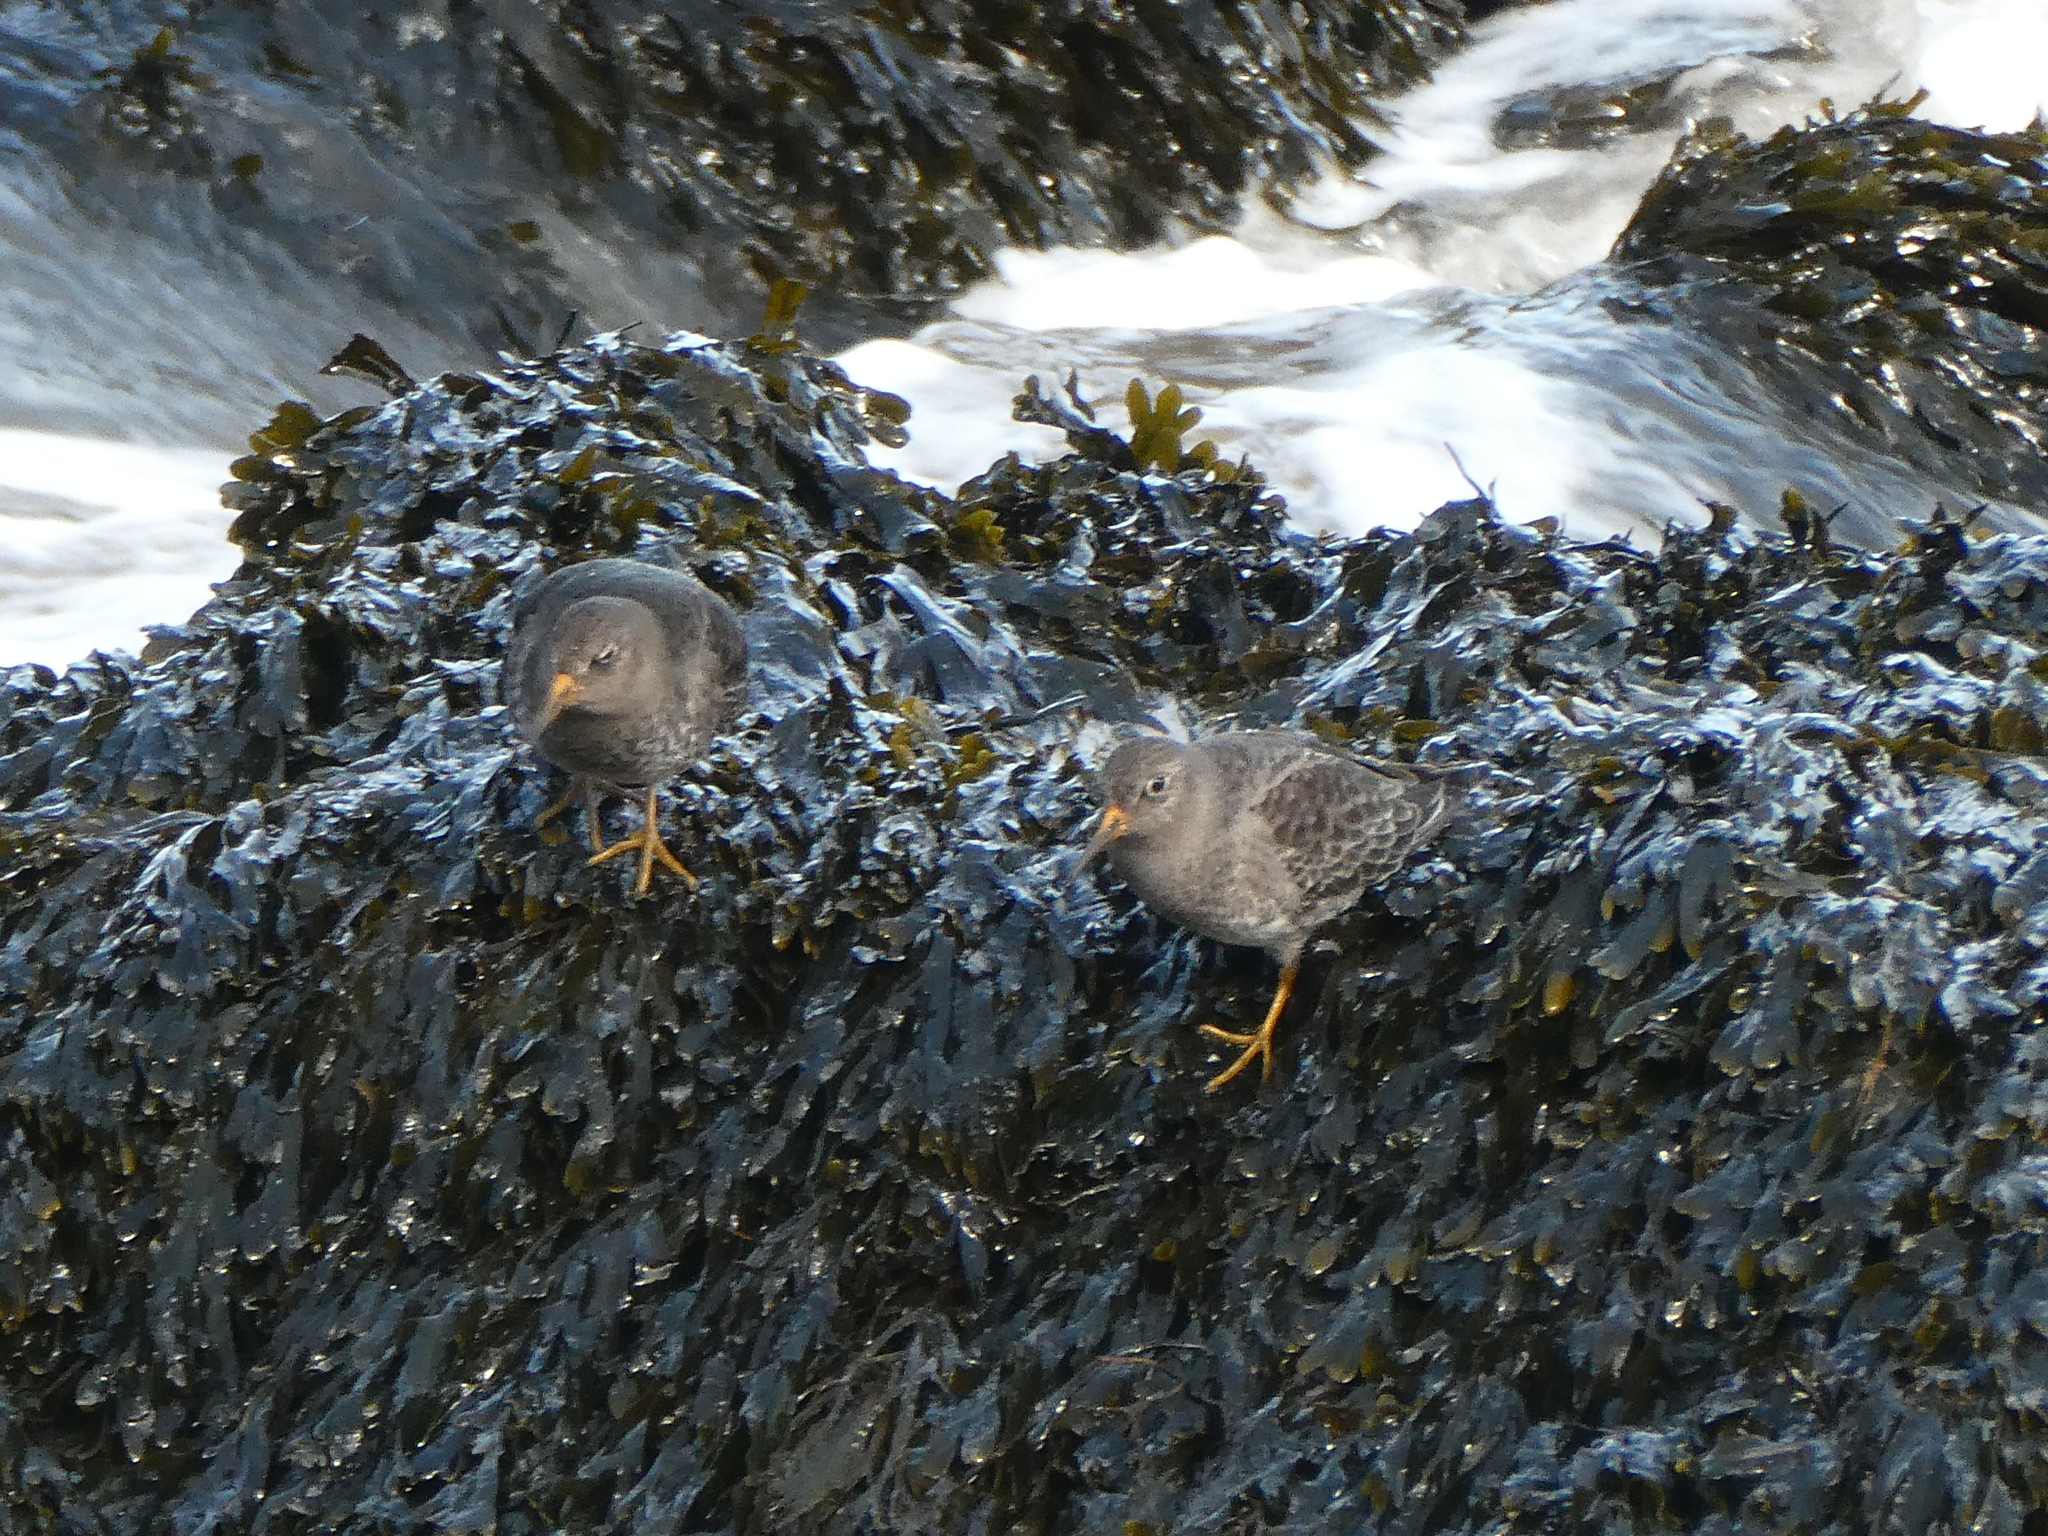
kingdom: Animalia
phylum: Chordata
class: Aves
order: Charadriiformes
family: Scolopacidae
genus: Calidris
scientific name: Calidris maritima
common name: Purple sandpiper
